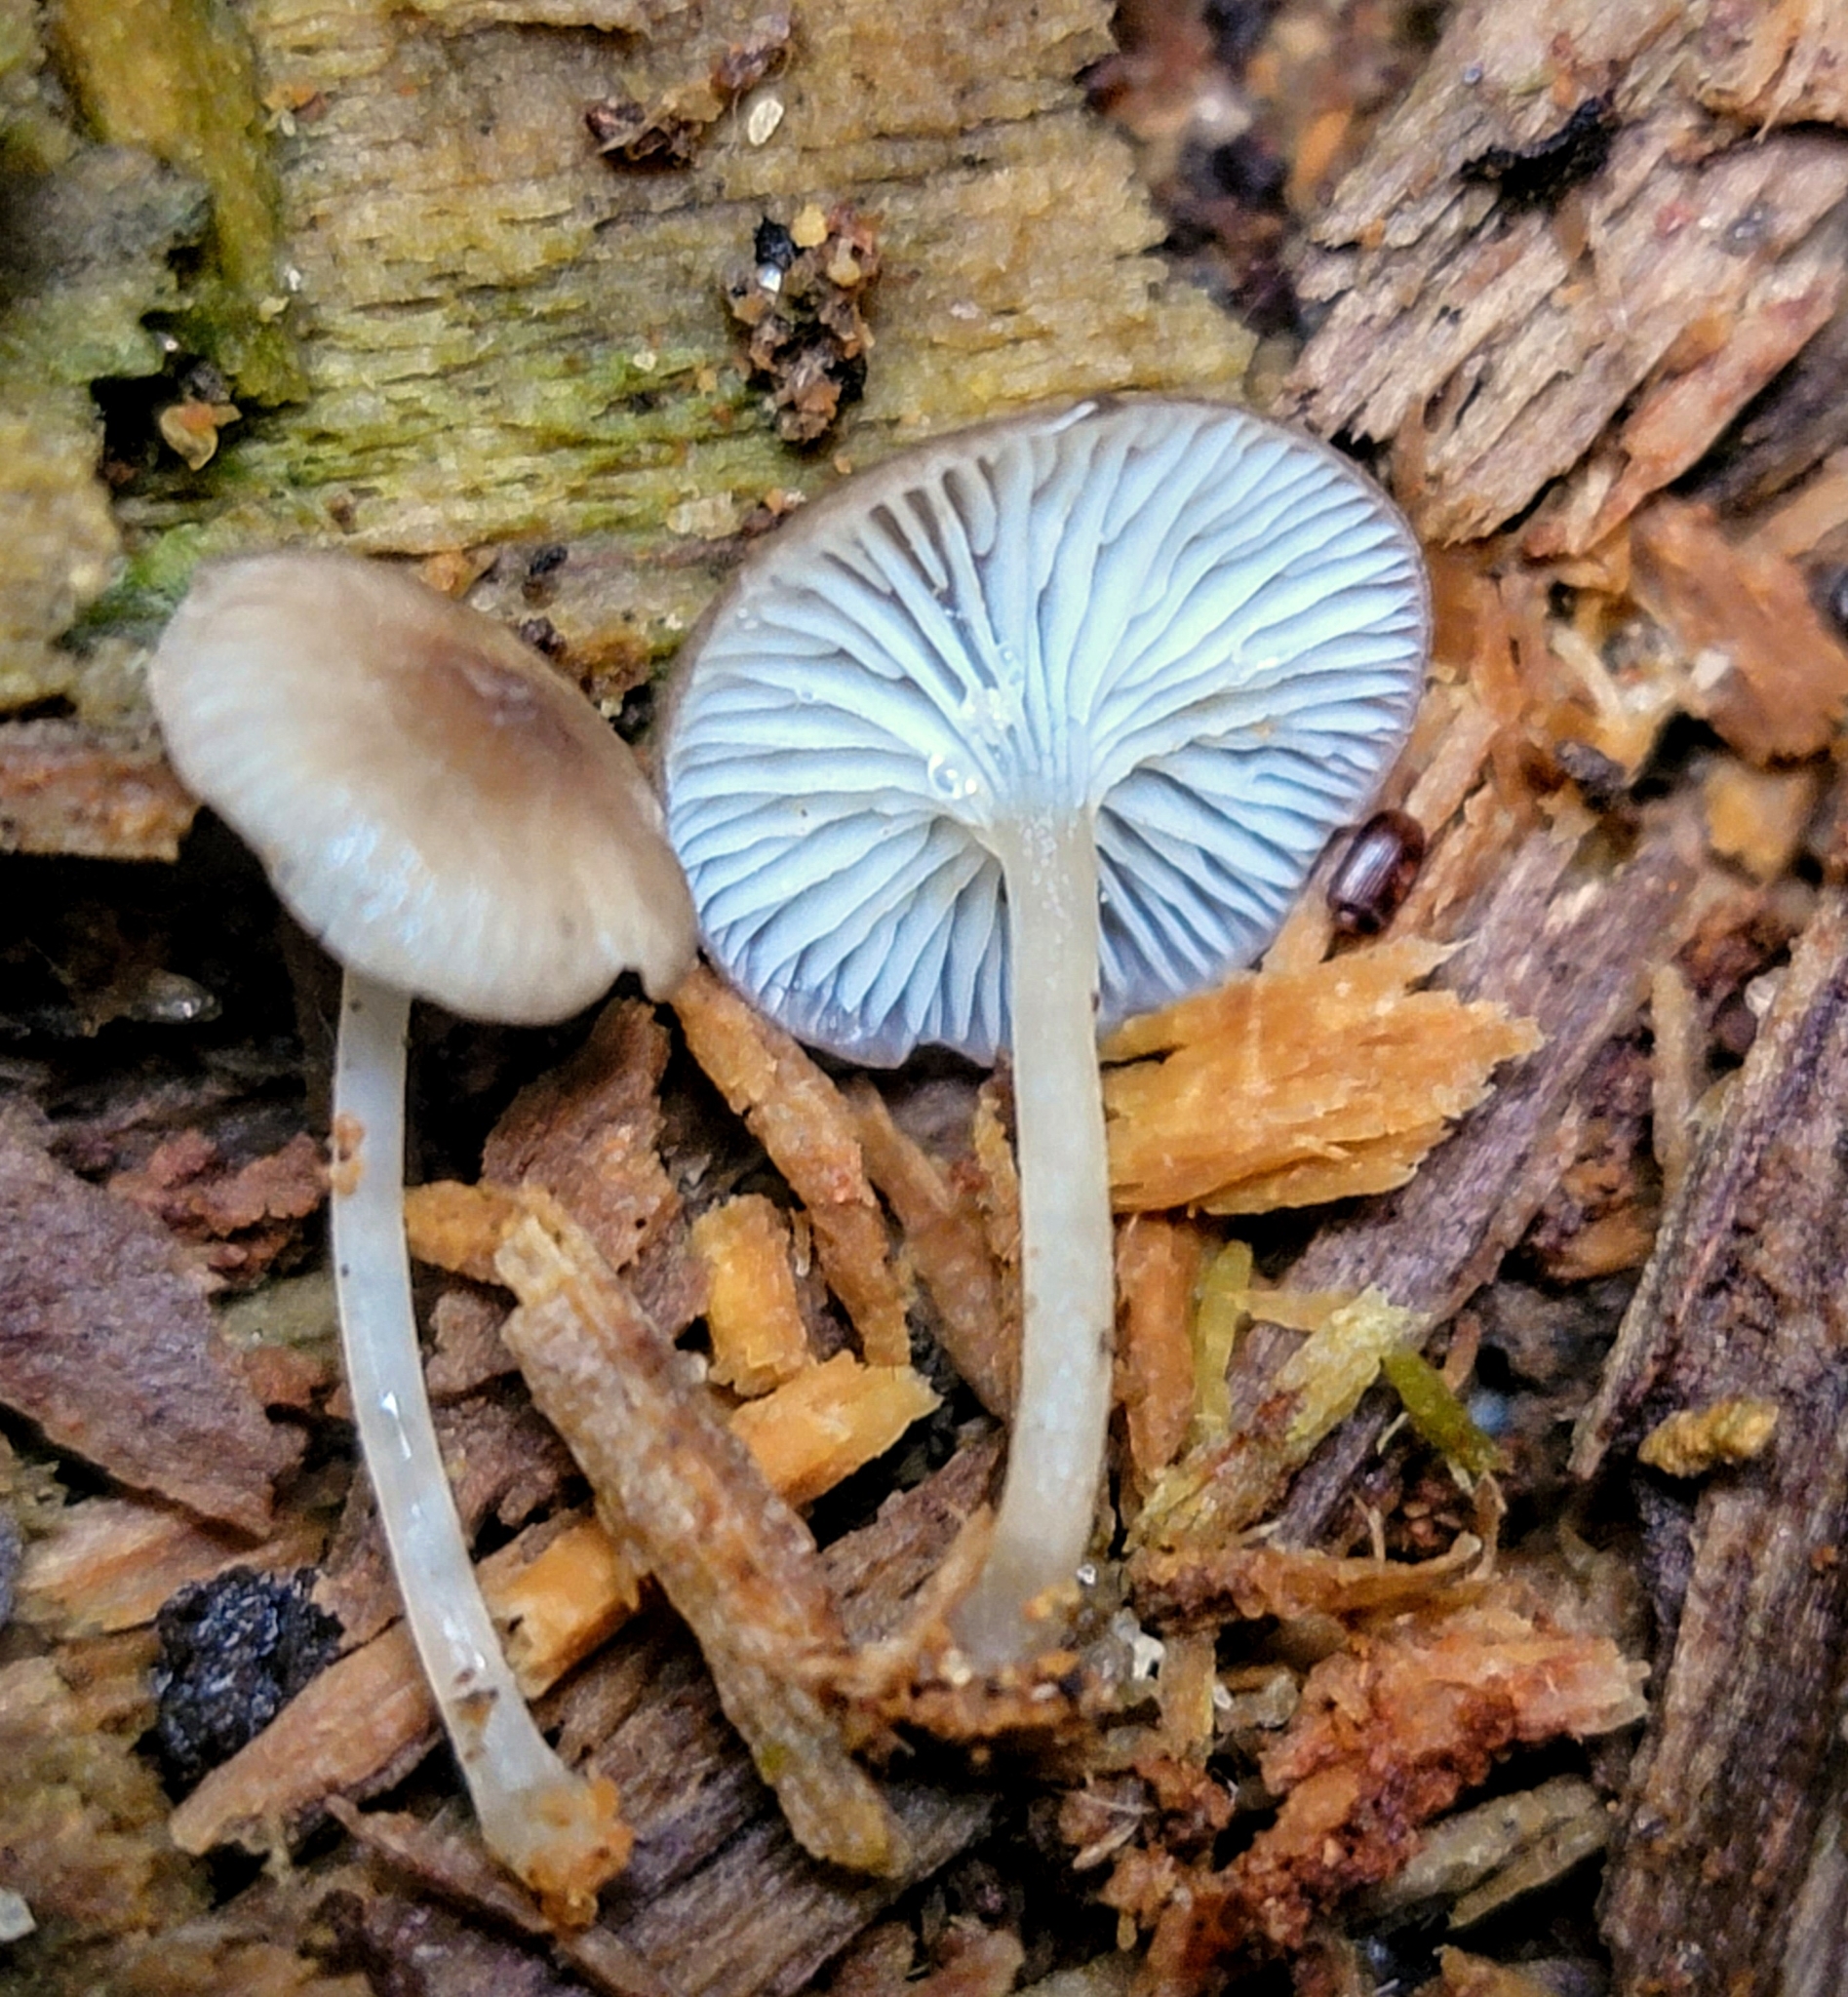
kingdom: Fungi
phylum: Basidiomycota
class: Agaricomycetes
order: Agaricales
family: Mycenaceae
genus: Hydropus
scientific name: Hydropus rugosodiscus
